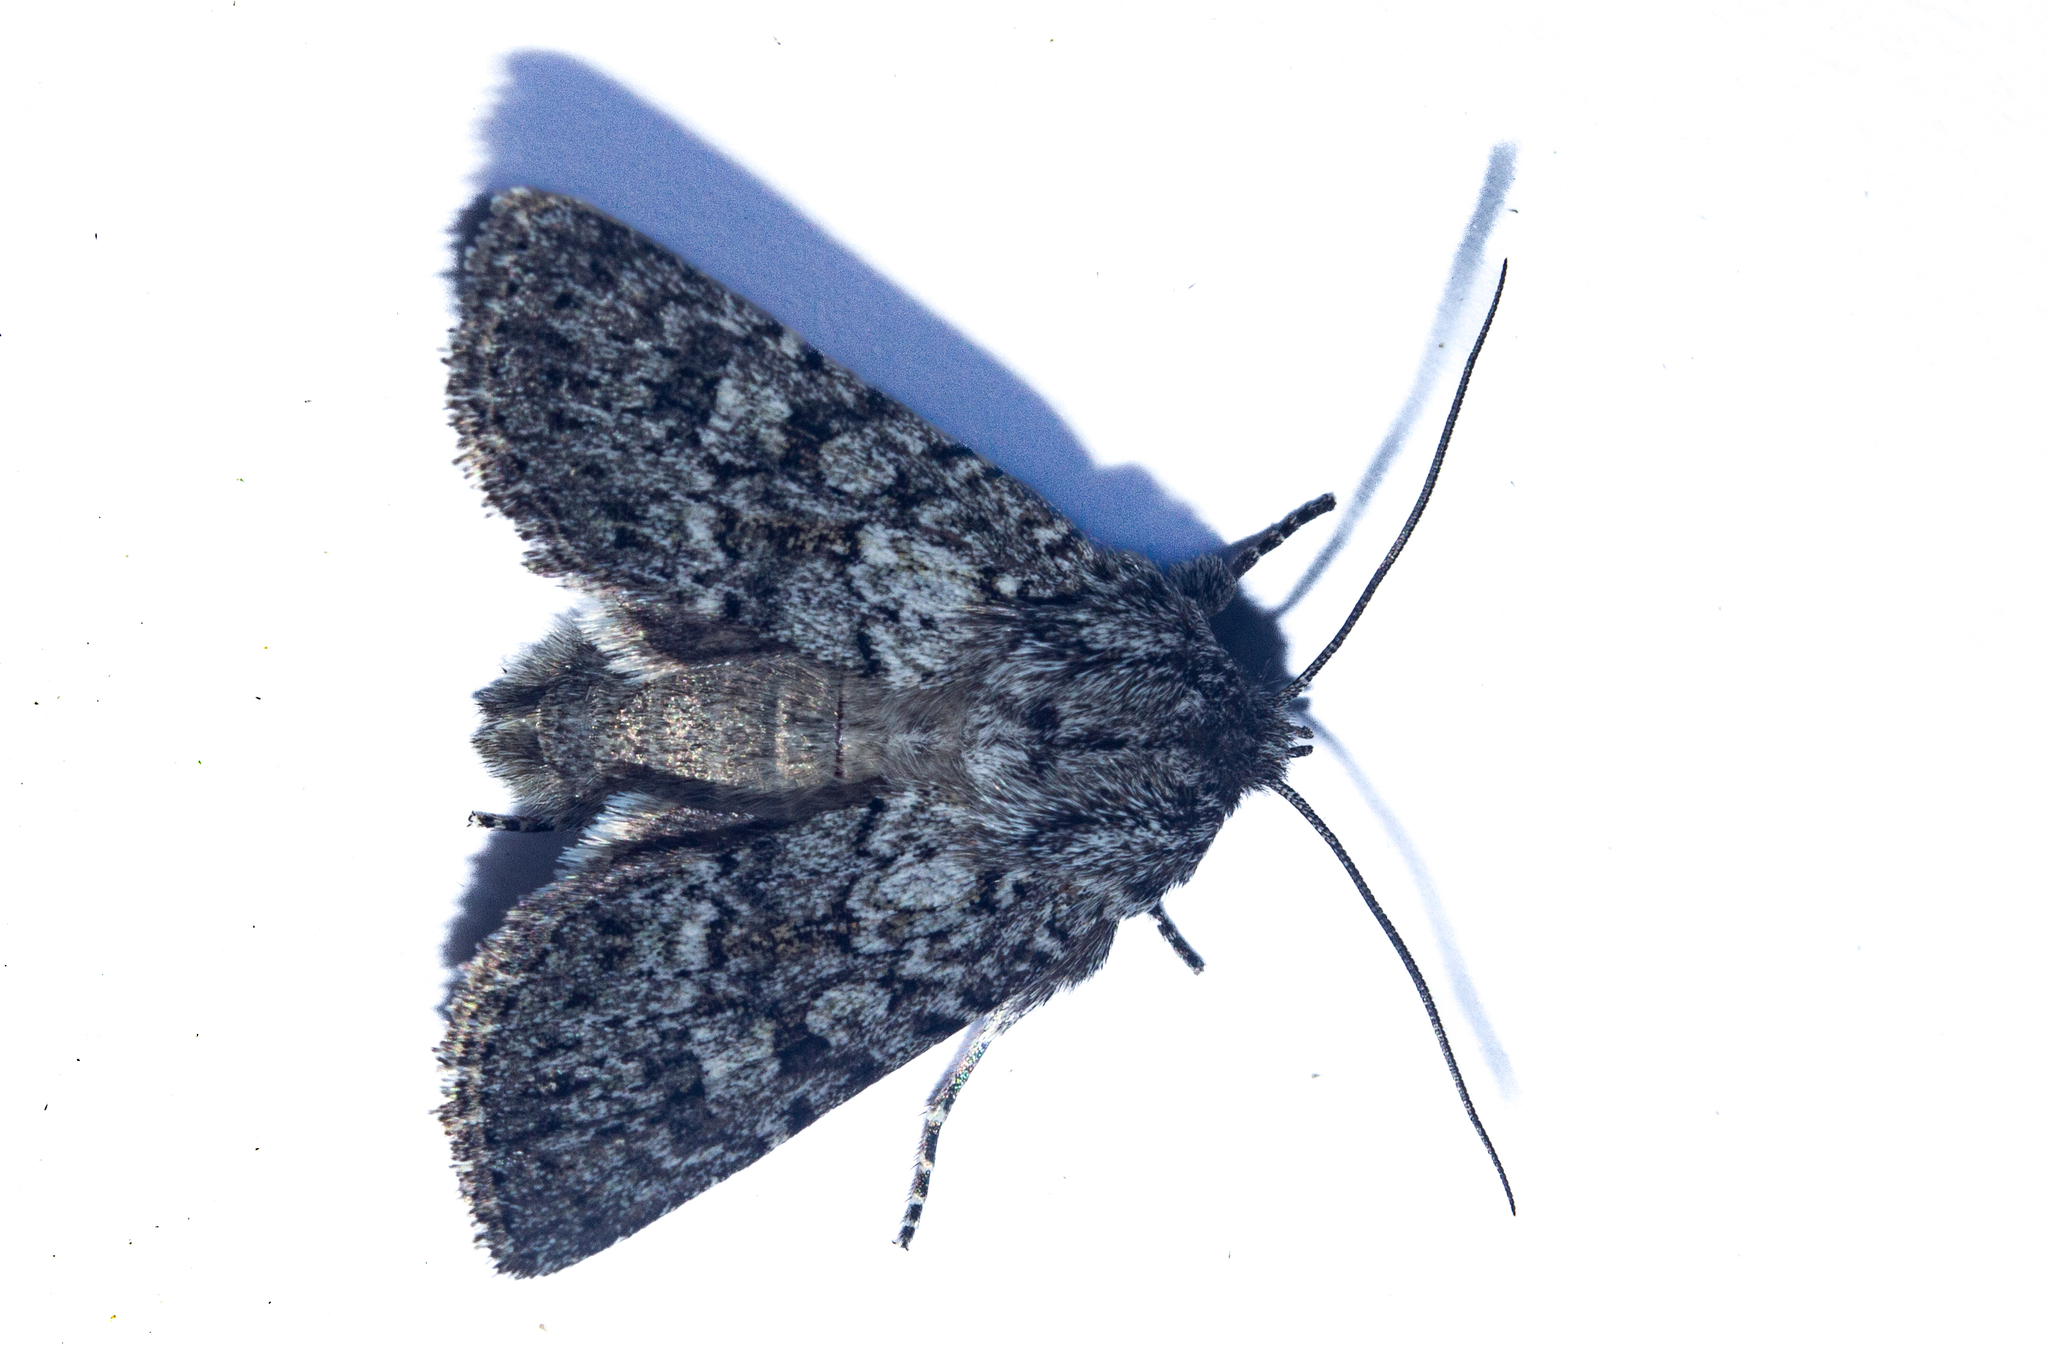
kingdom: Animalia
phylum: Arthropoda
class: Insecta
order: Lepidoptera
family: Noctuidae
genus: Physetica
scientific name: Physetica cucullina
